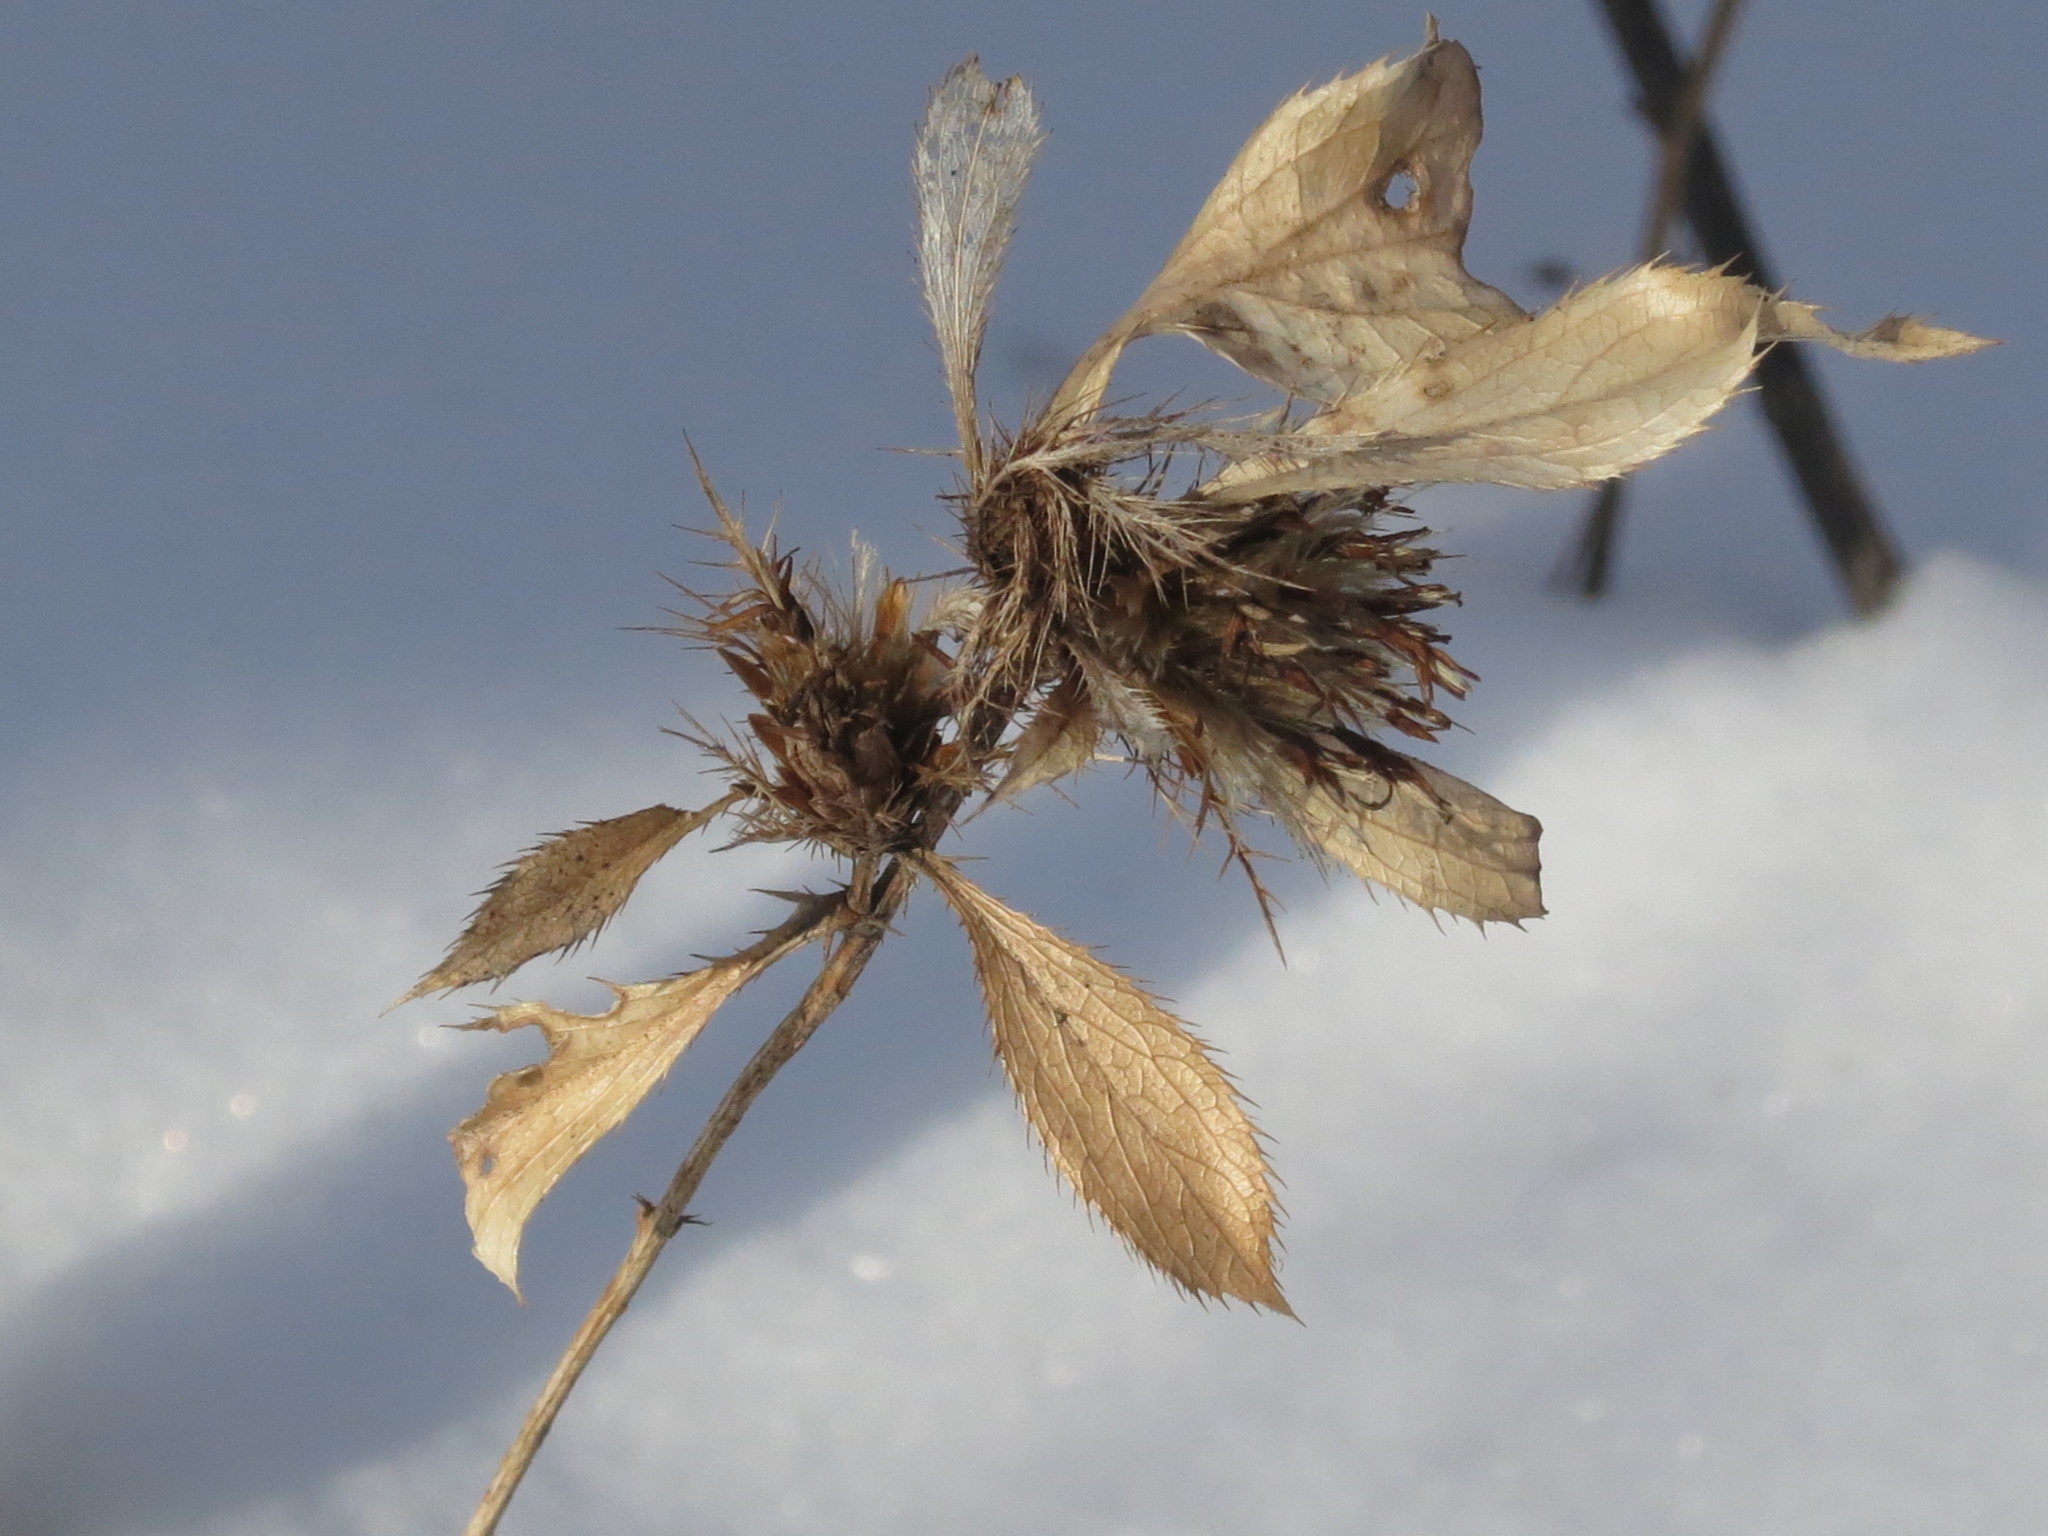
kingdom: Plantae
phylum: Tracheophyta
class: Magnoliopsida
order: Asterales
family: Asteraceae
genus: Atractylodes
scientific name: Atractylodes lancea
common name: Southern tsangshu
